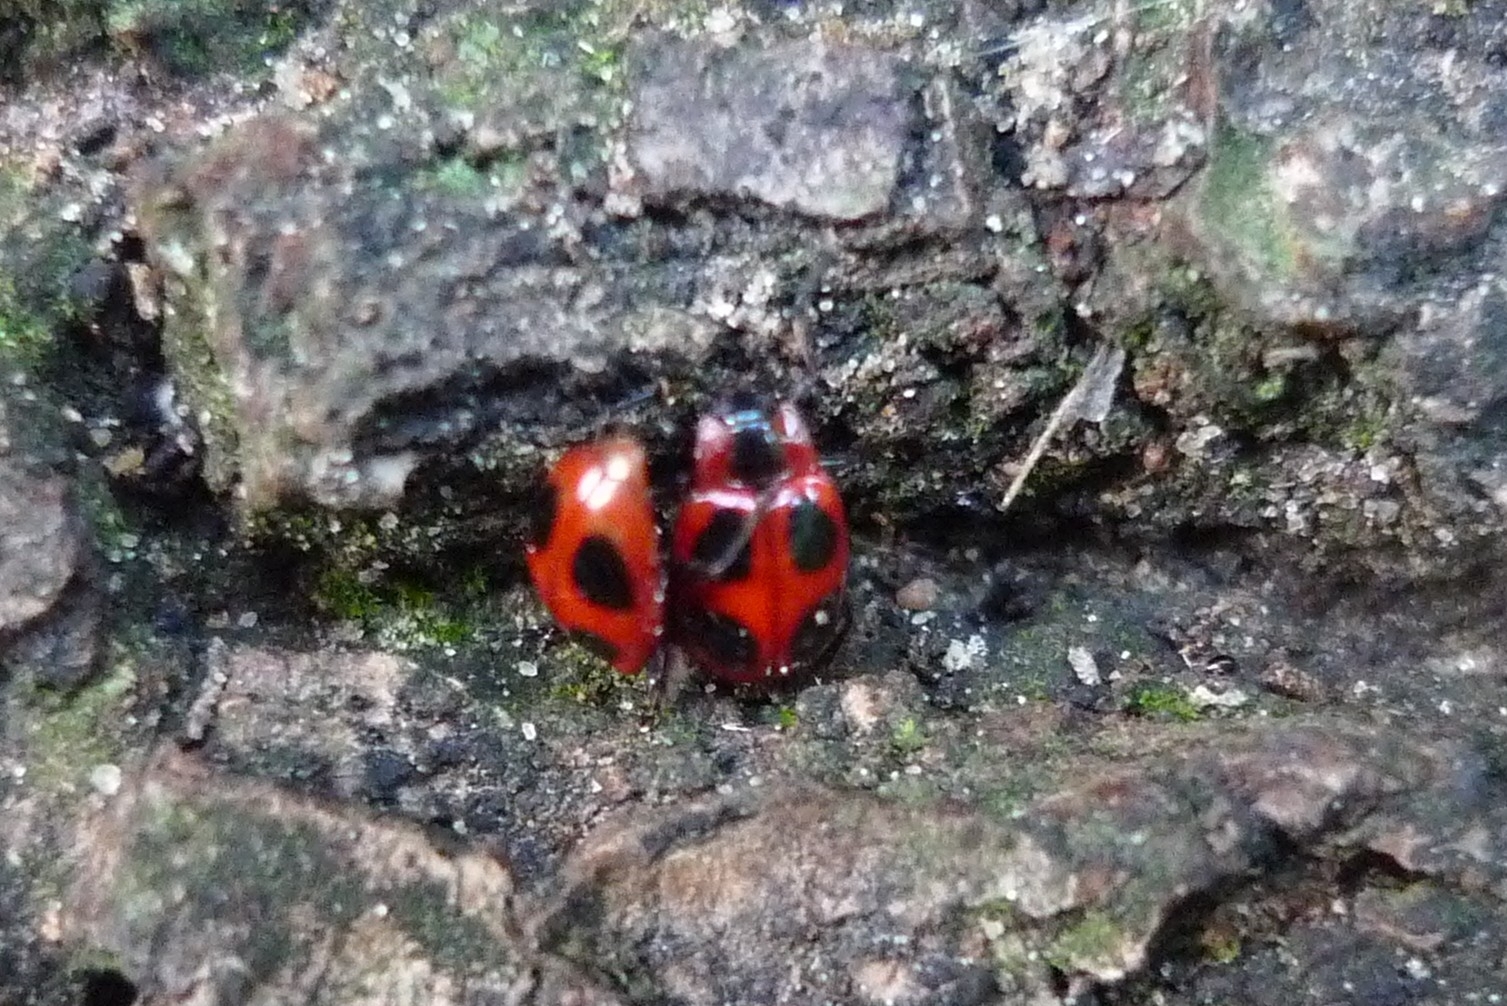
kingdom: Animalia
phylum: Arthropoda
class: Insecta
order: Coleoptera
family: Endomychidae
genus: Endomychus
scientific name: Endomychus coccineus
